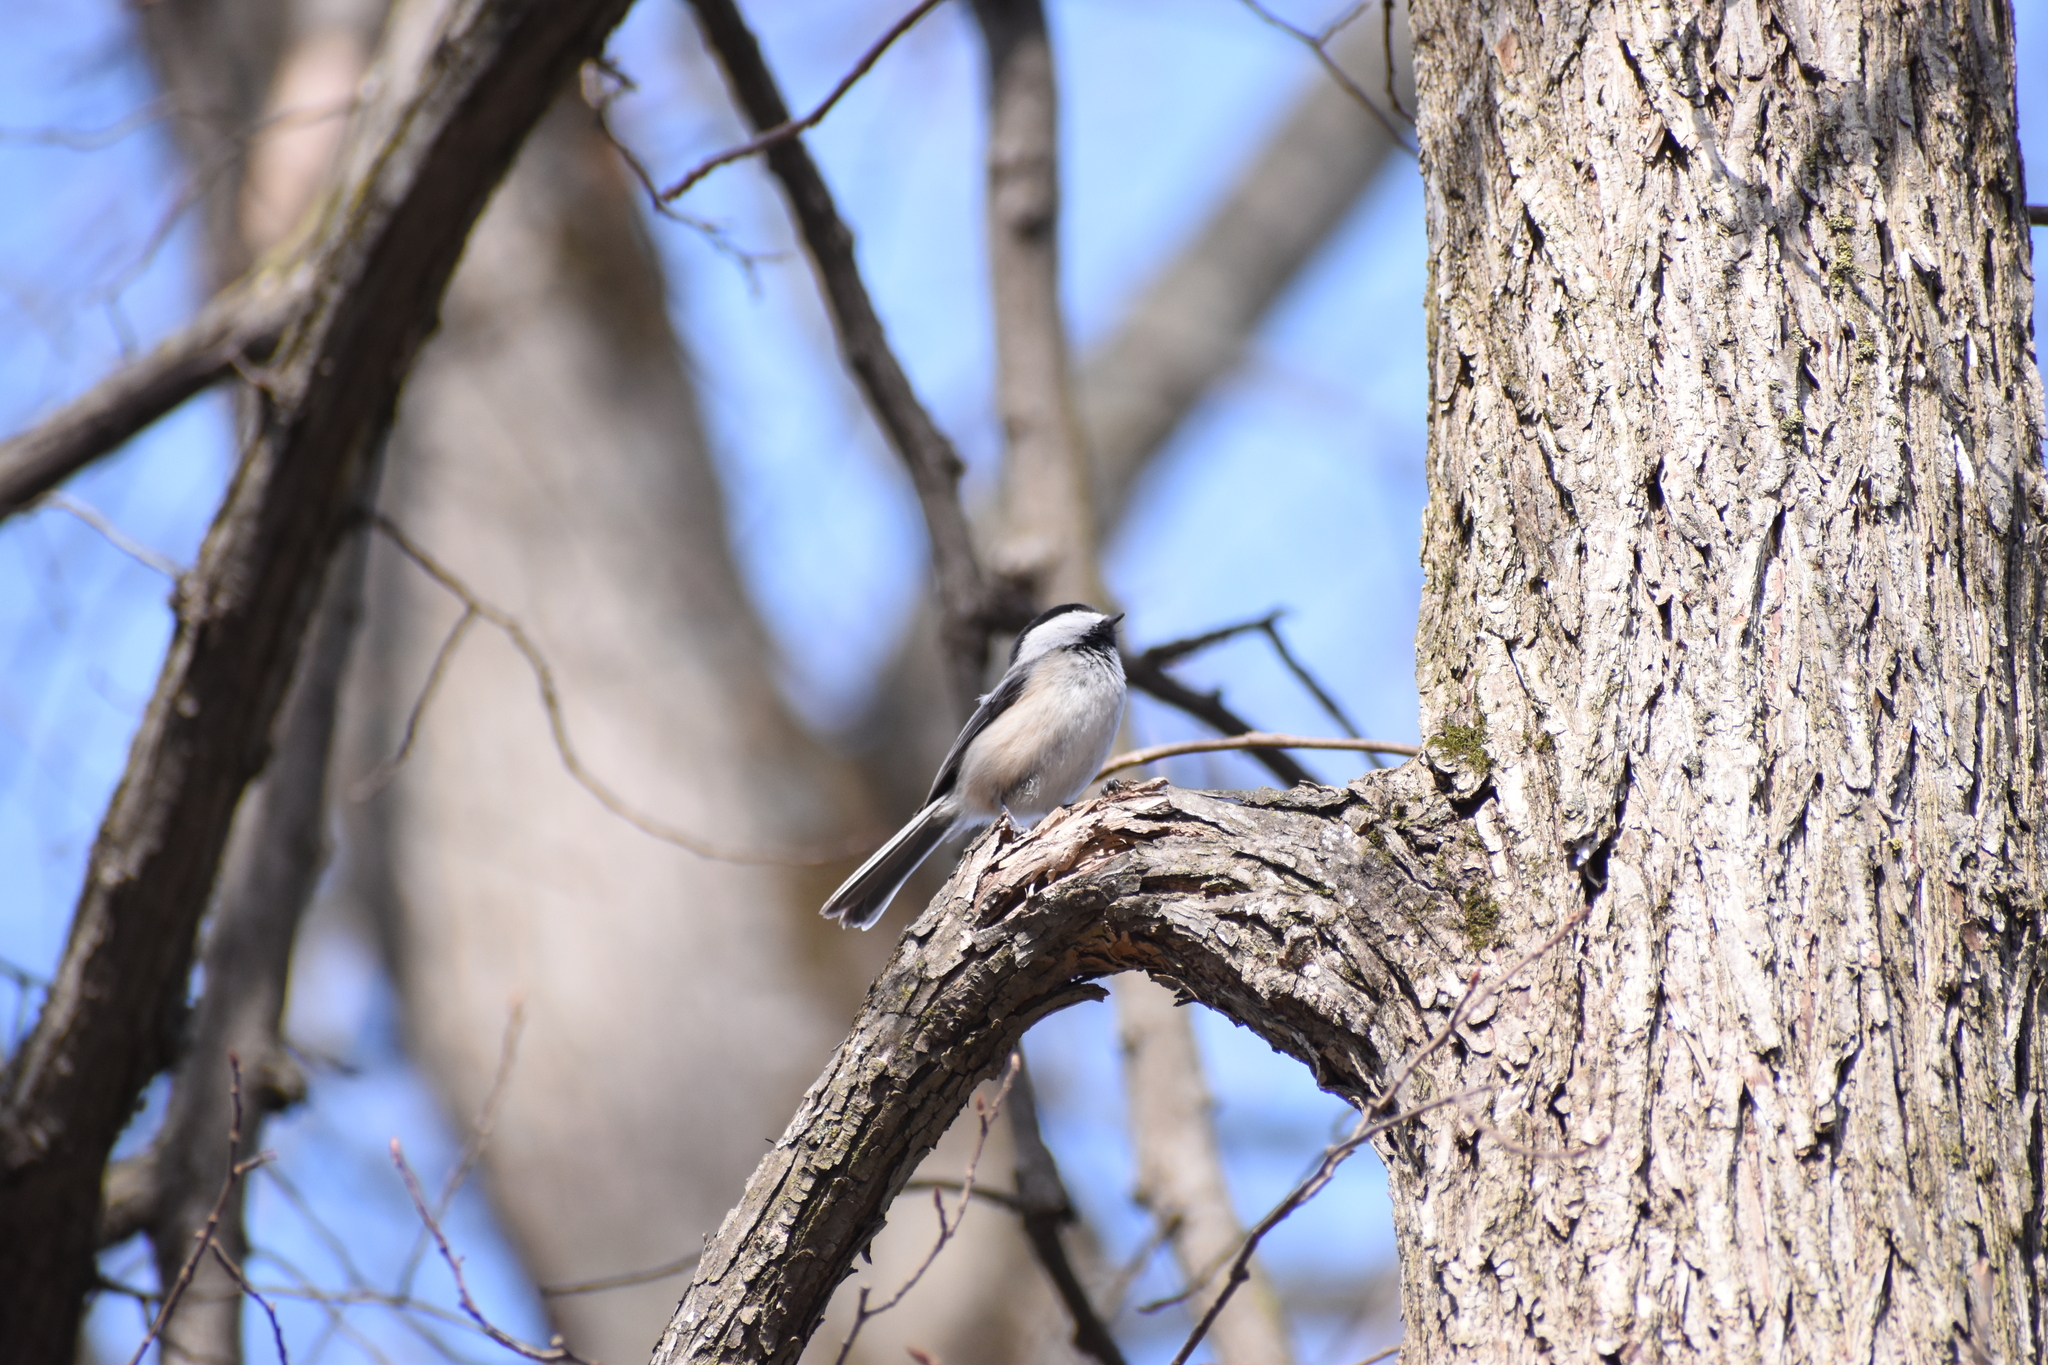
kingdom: Animalia
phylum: Chordata
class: Aves
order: Passeriformes
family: Paridae
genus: Poecile
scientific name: Poecile atricapillus
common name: Black-capped chickadee
